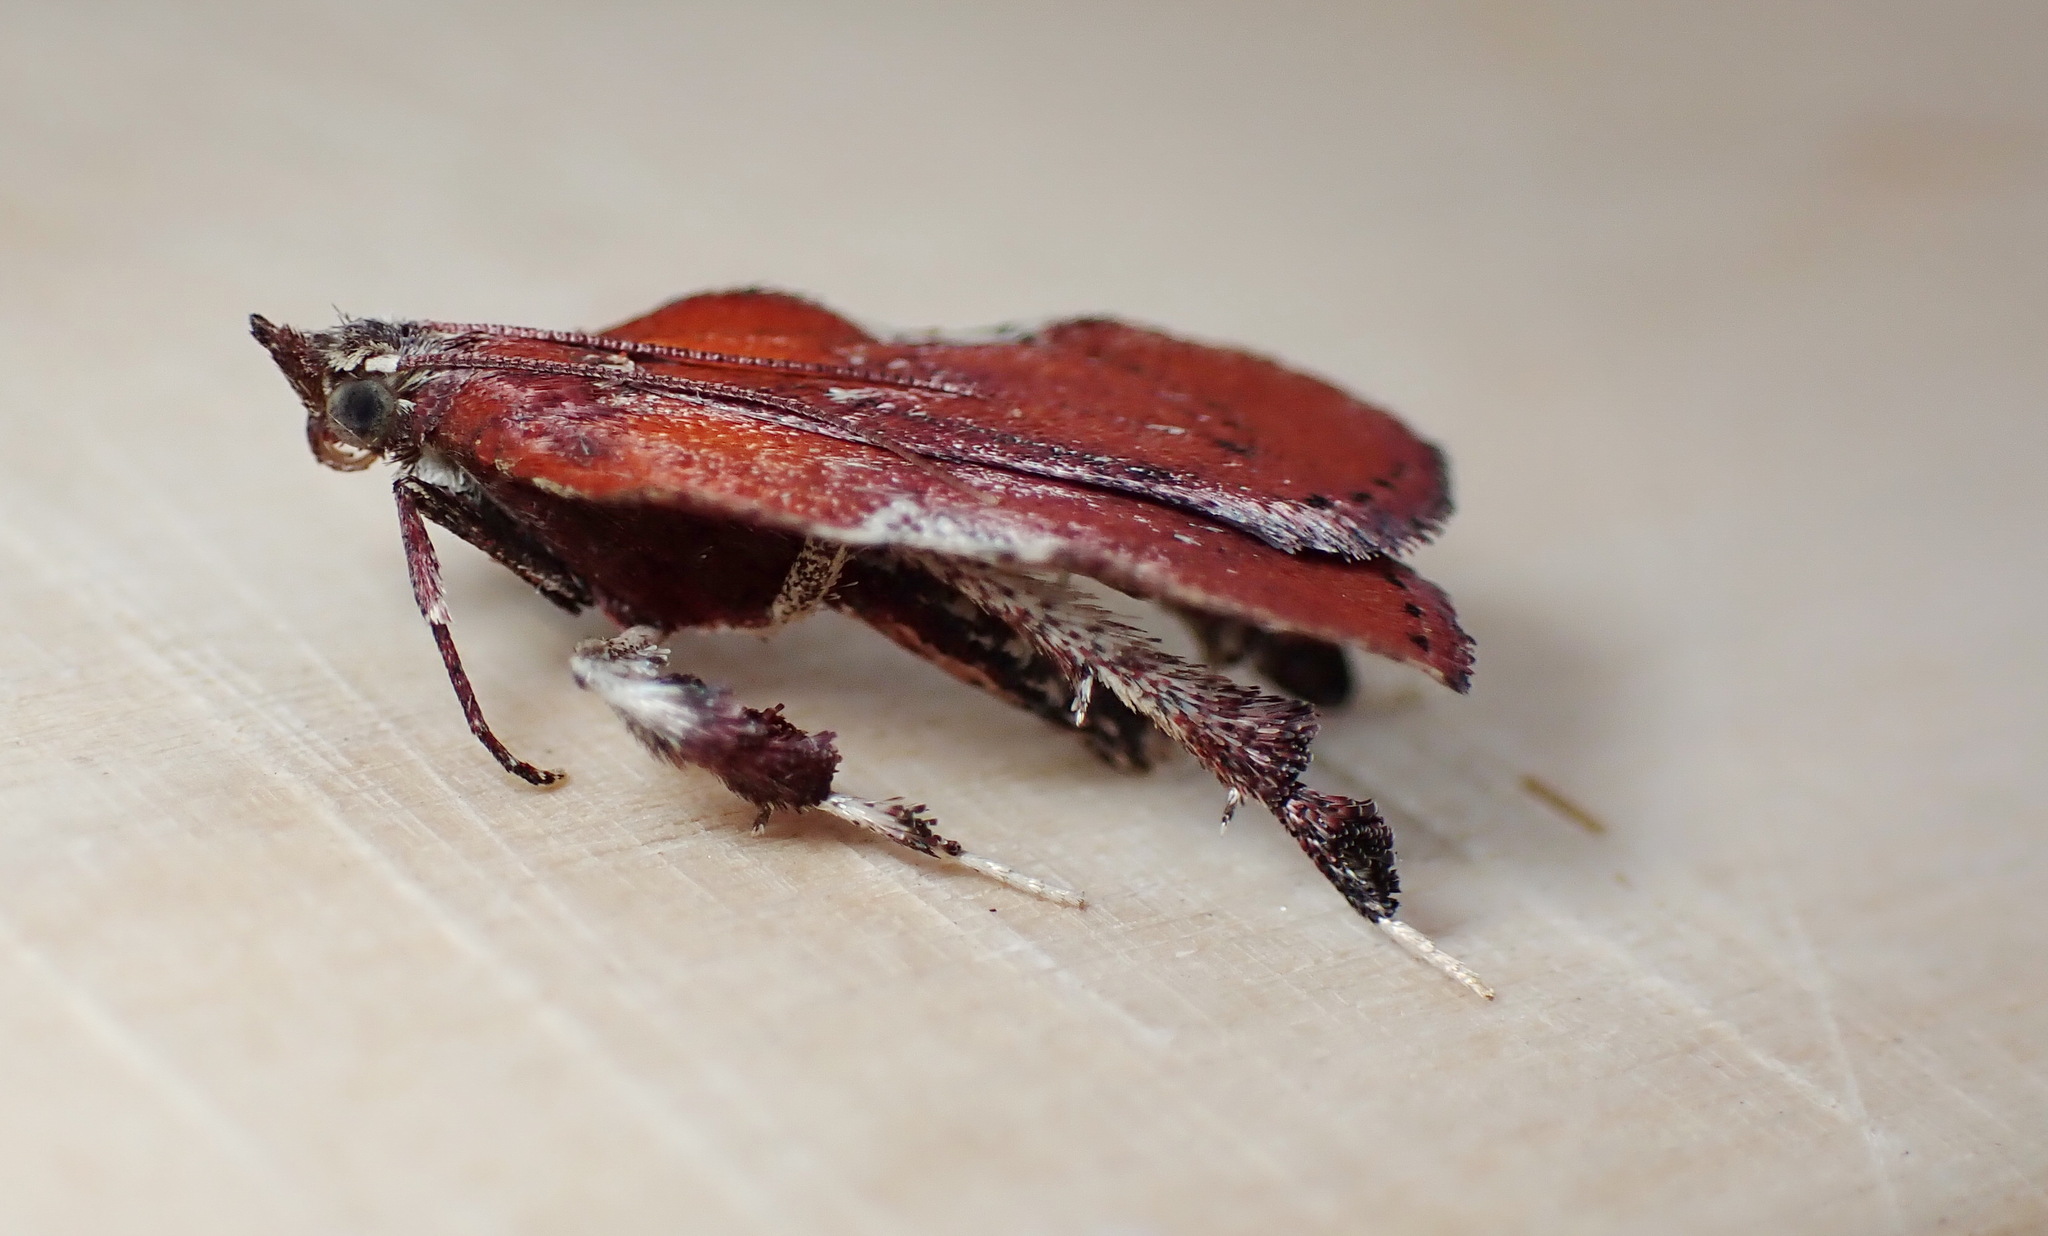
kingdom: Animalia
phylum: Arthropoda
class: Insecta
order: Lepidoptera
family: Pyralidae
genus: Galasa
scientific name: Galasa nigrinodis
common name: Boxwood leaftier moth
